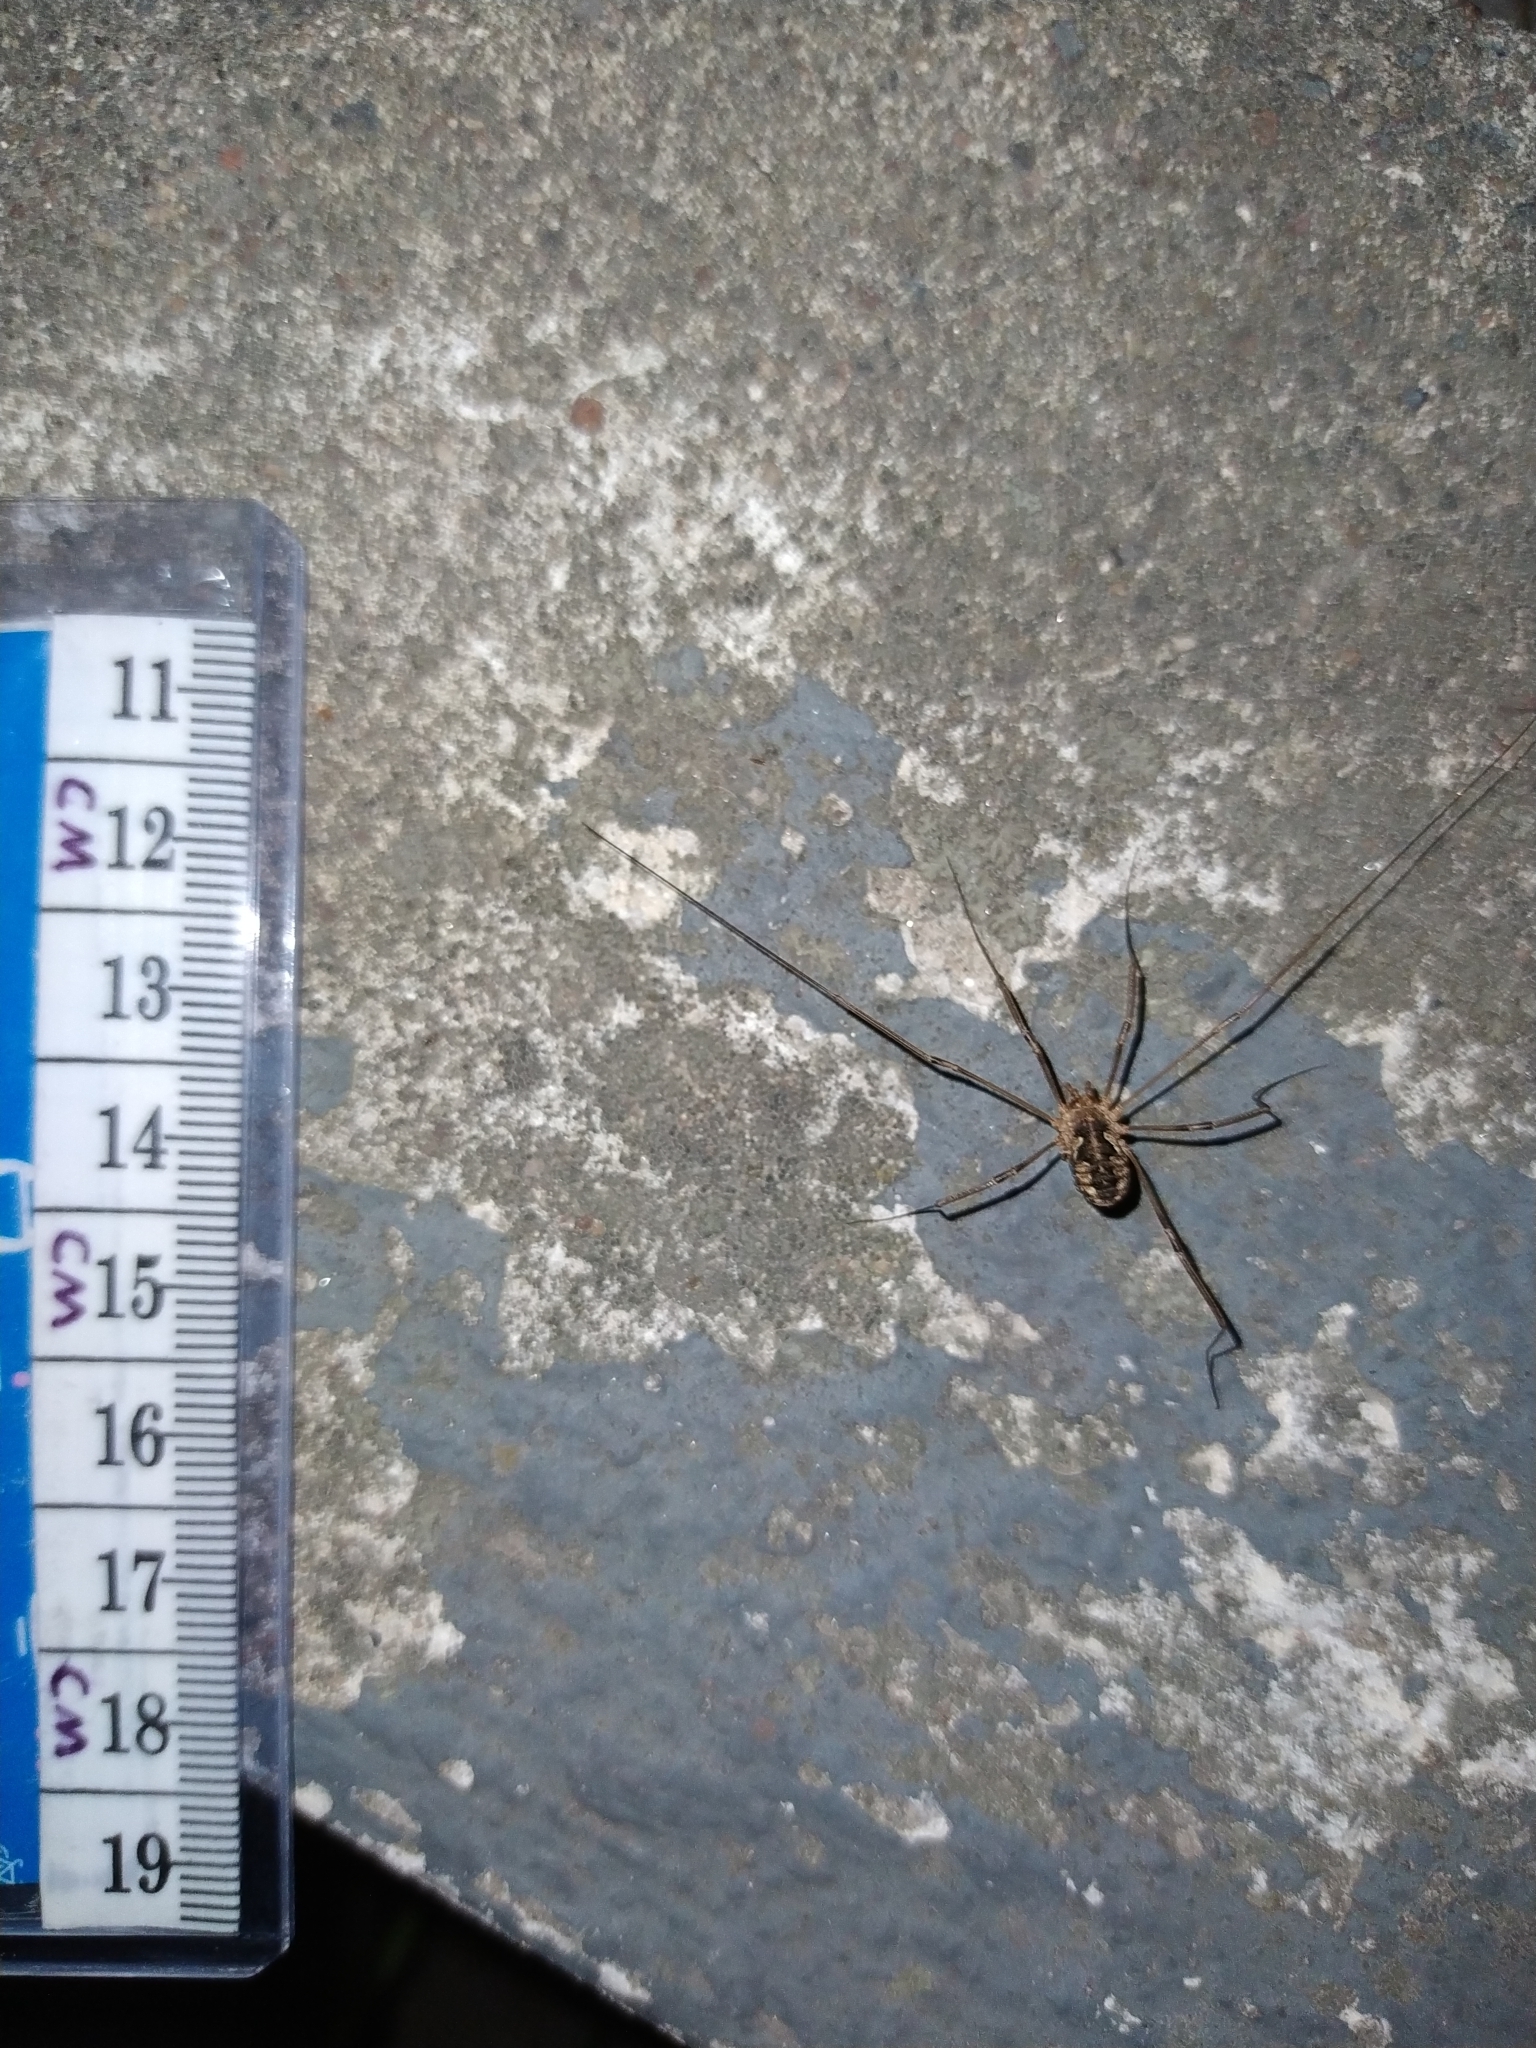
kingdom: Animalia
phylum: Arthropoda
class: Arachnida
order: Opiliones
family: Phalangiidae
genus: Phalangium
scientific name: Phalangium opilio
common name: Daddy longleg
